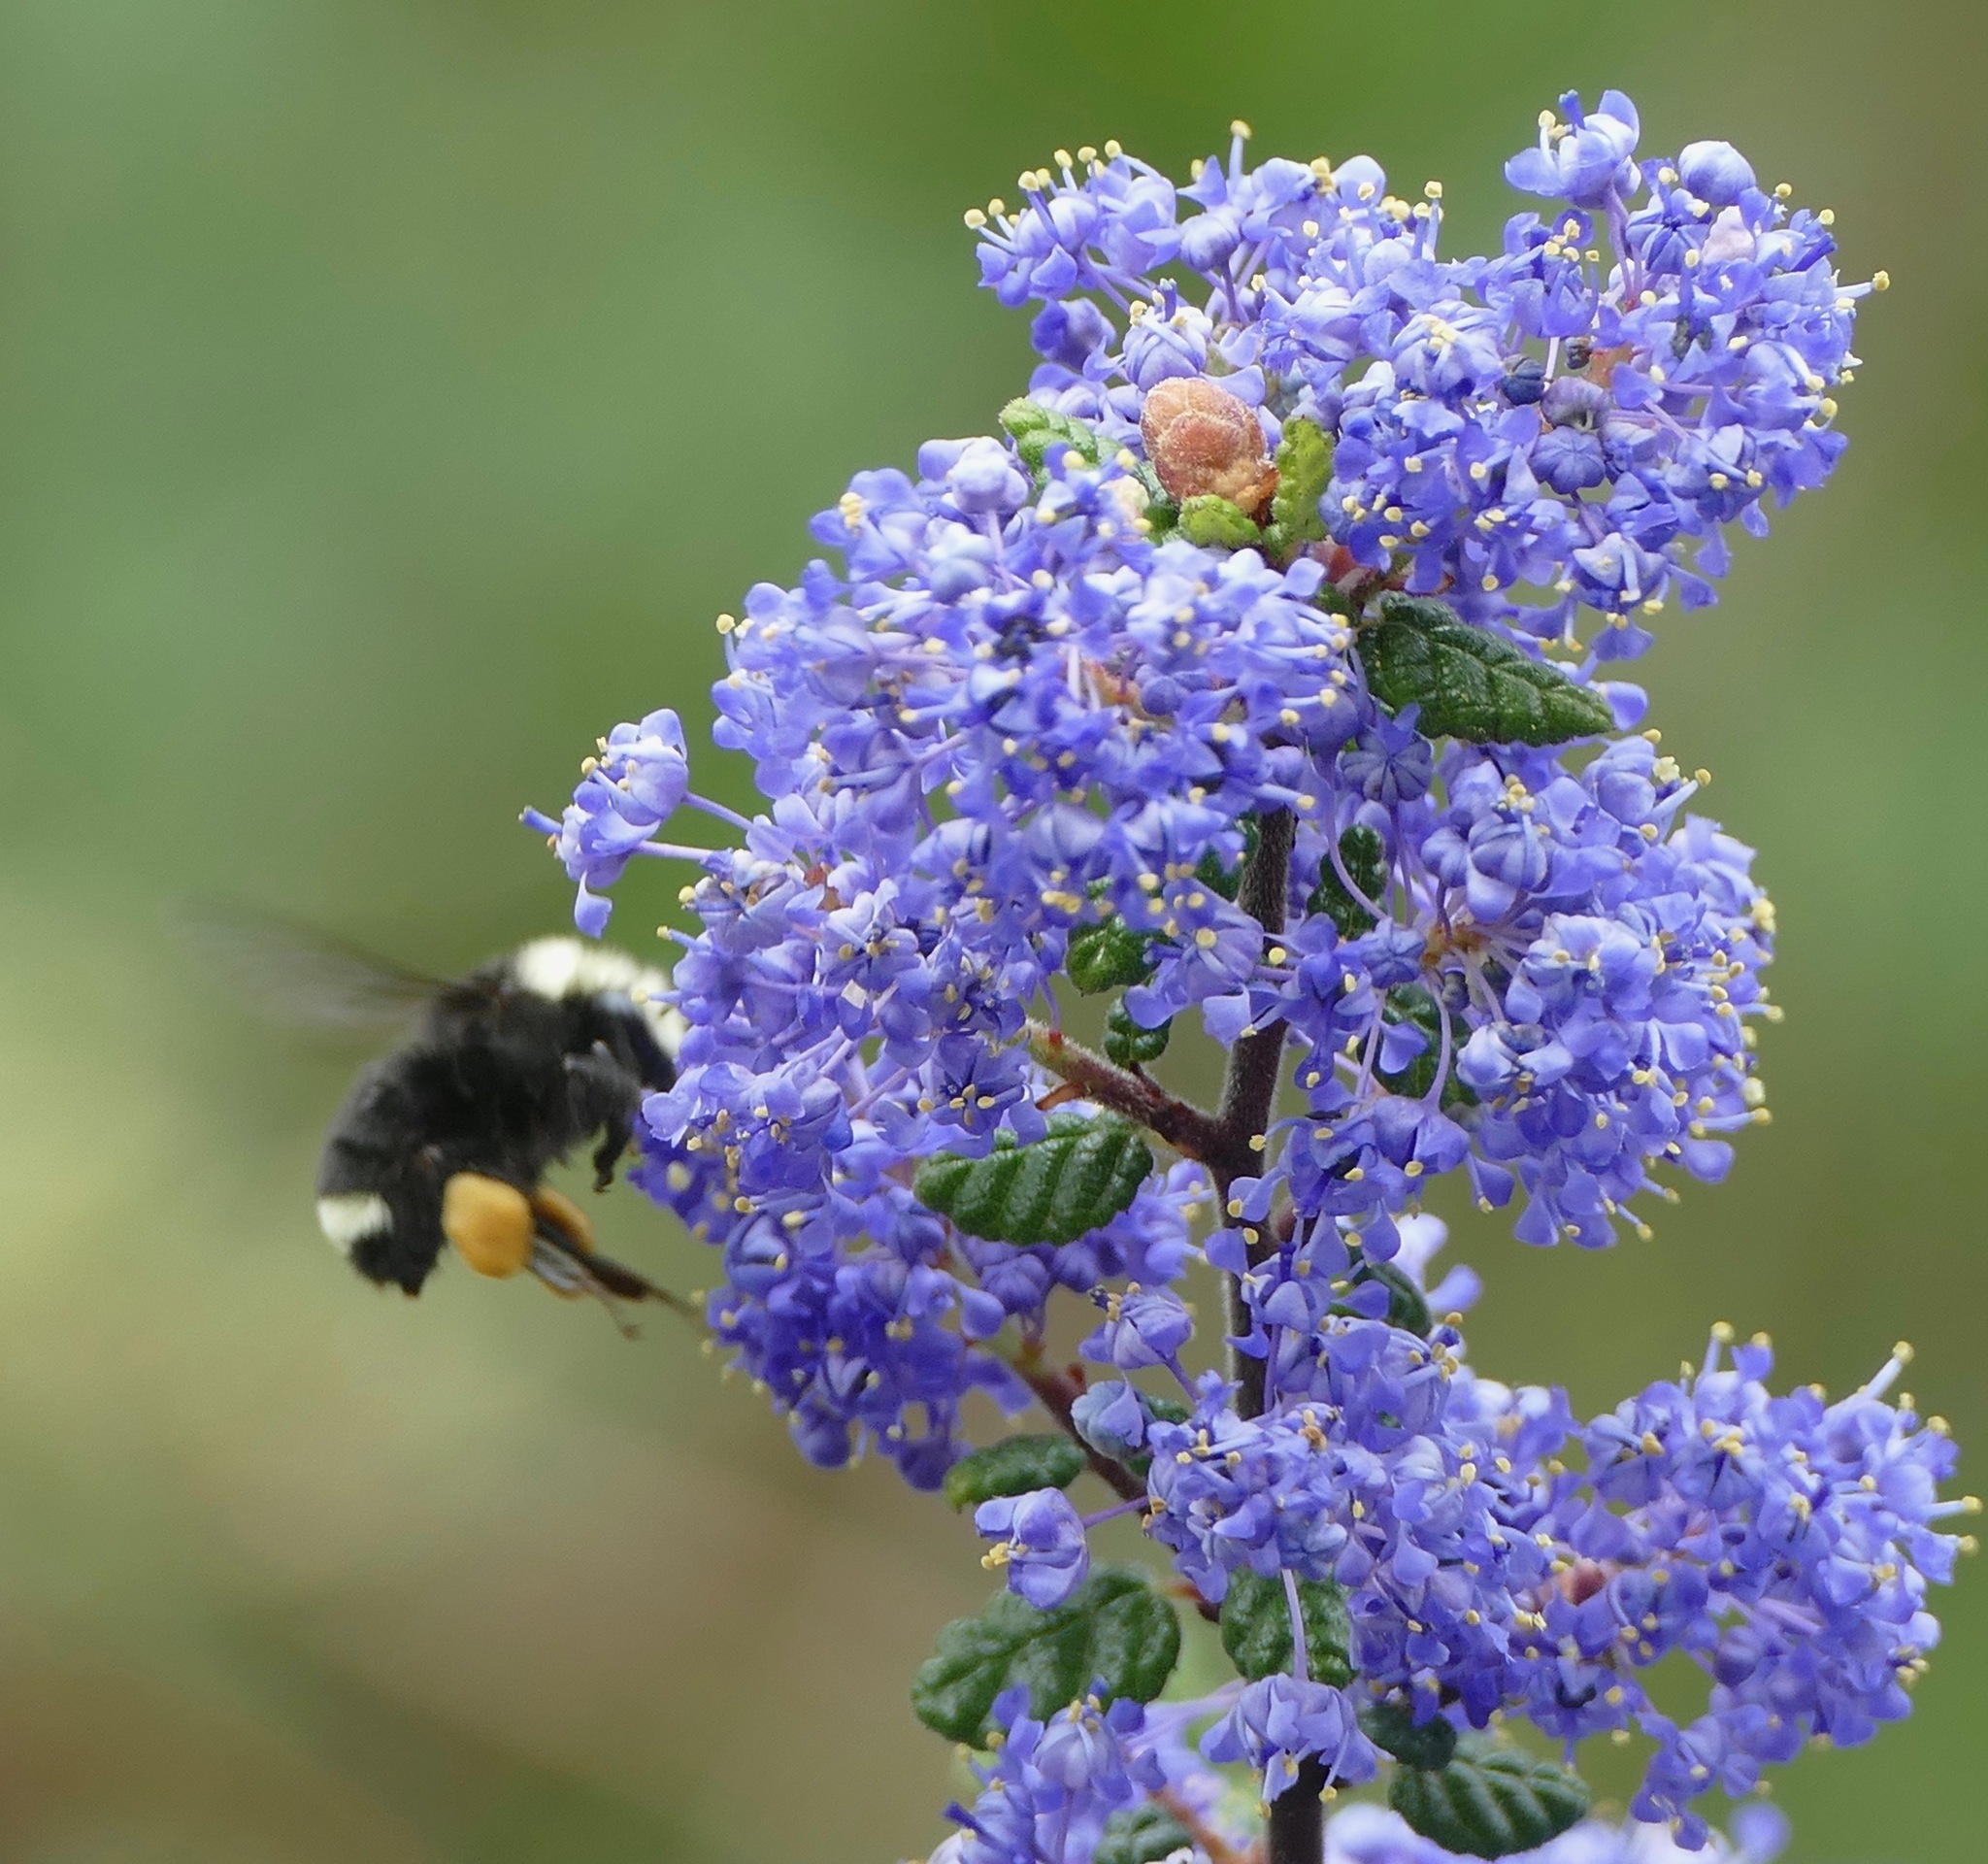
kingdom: Animalia
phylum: Arthropoda
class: Insecta
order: Hymenoptera
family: Apidae
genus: Bombus
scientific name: Bombus vosnesenskii
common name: Vosnesensky bumble bee
